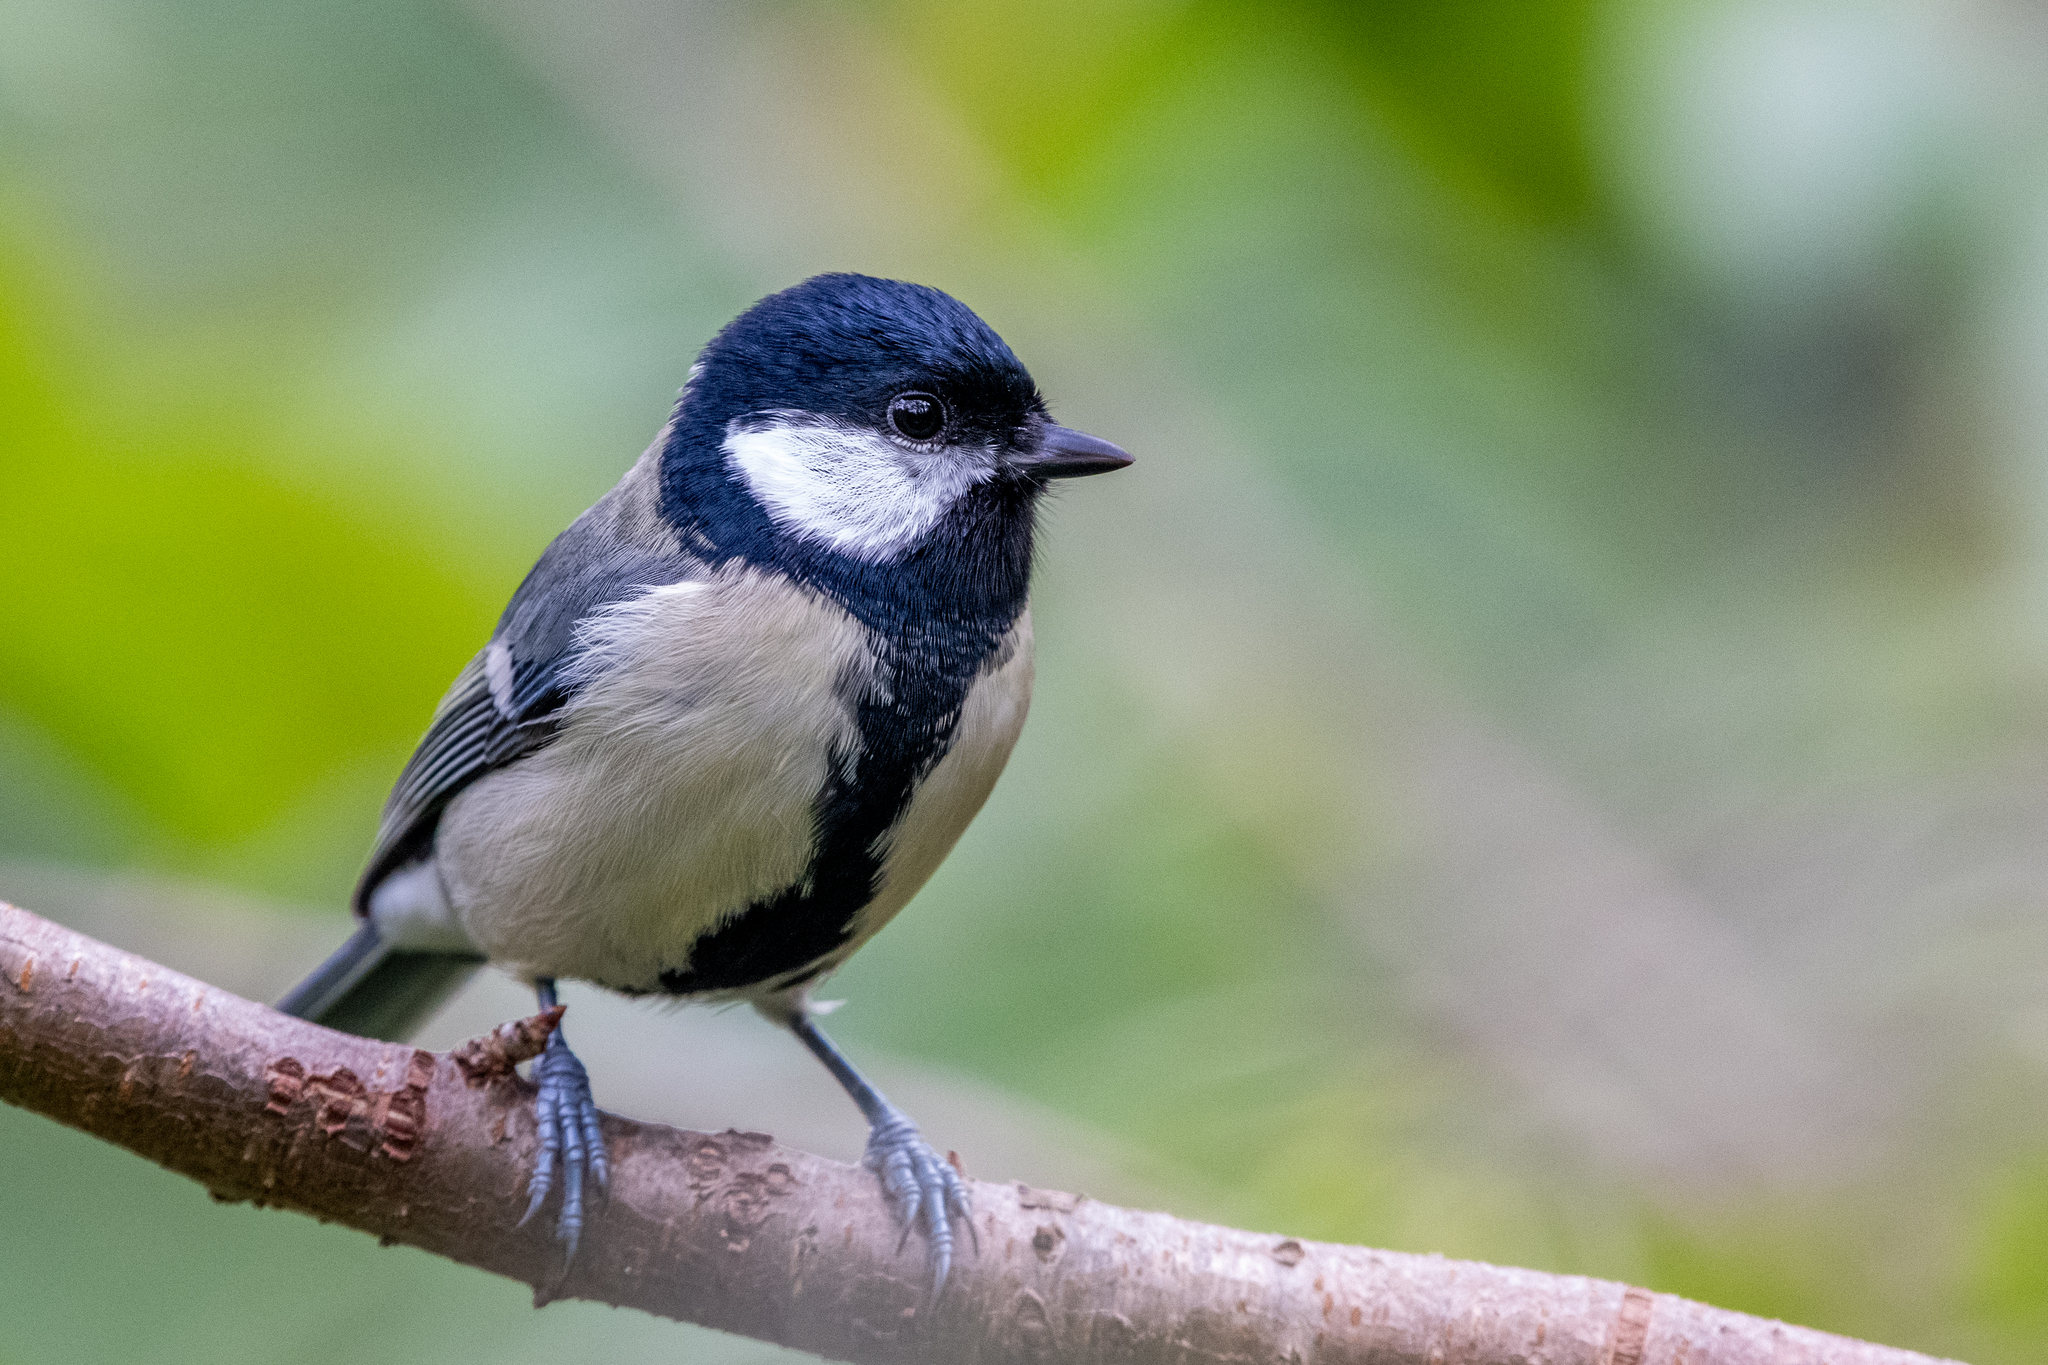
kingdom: Animalia
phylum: Chordata
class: Aves
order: Passeriformes
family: Paridae
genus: Parus
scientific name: Parus major
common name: Great tit
